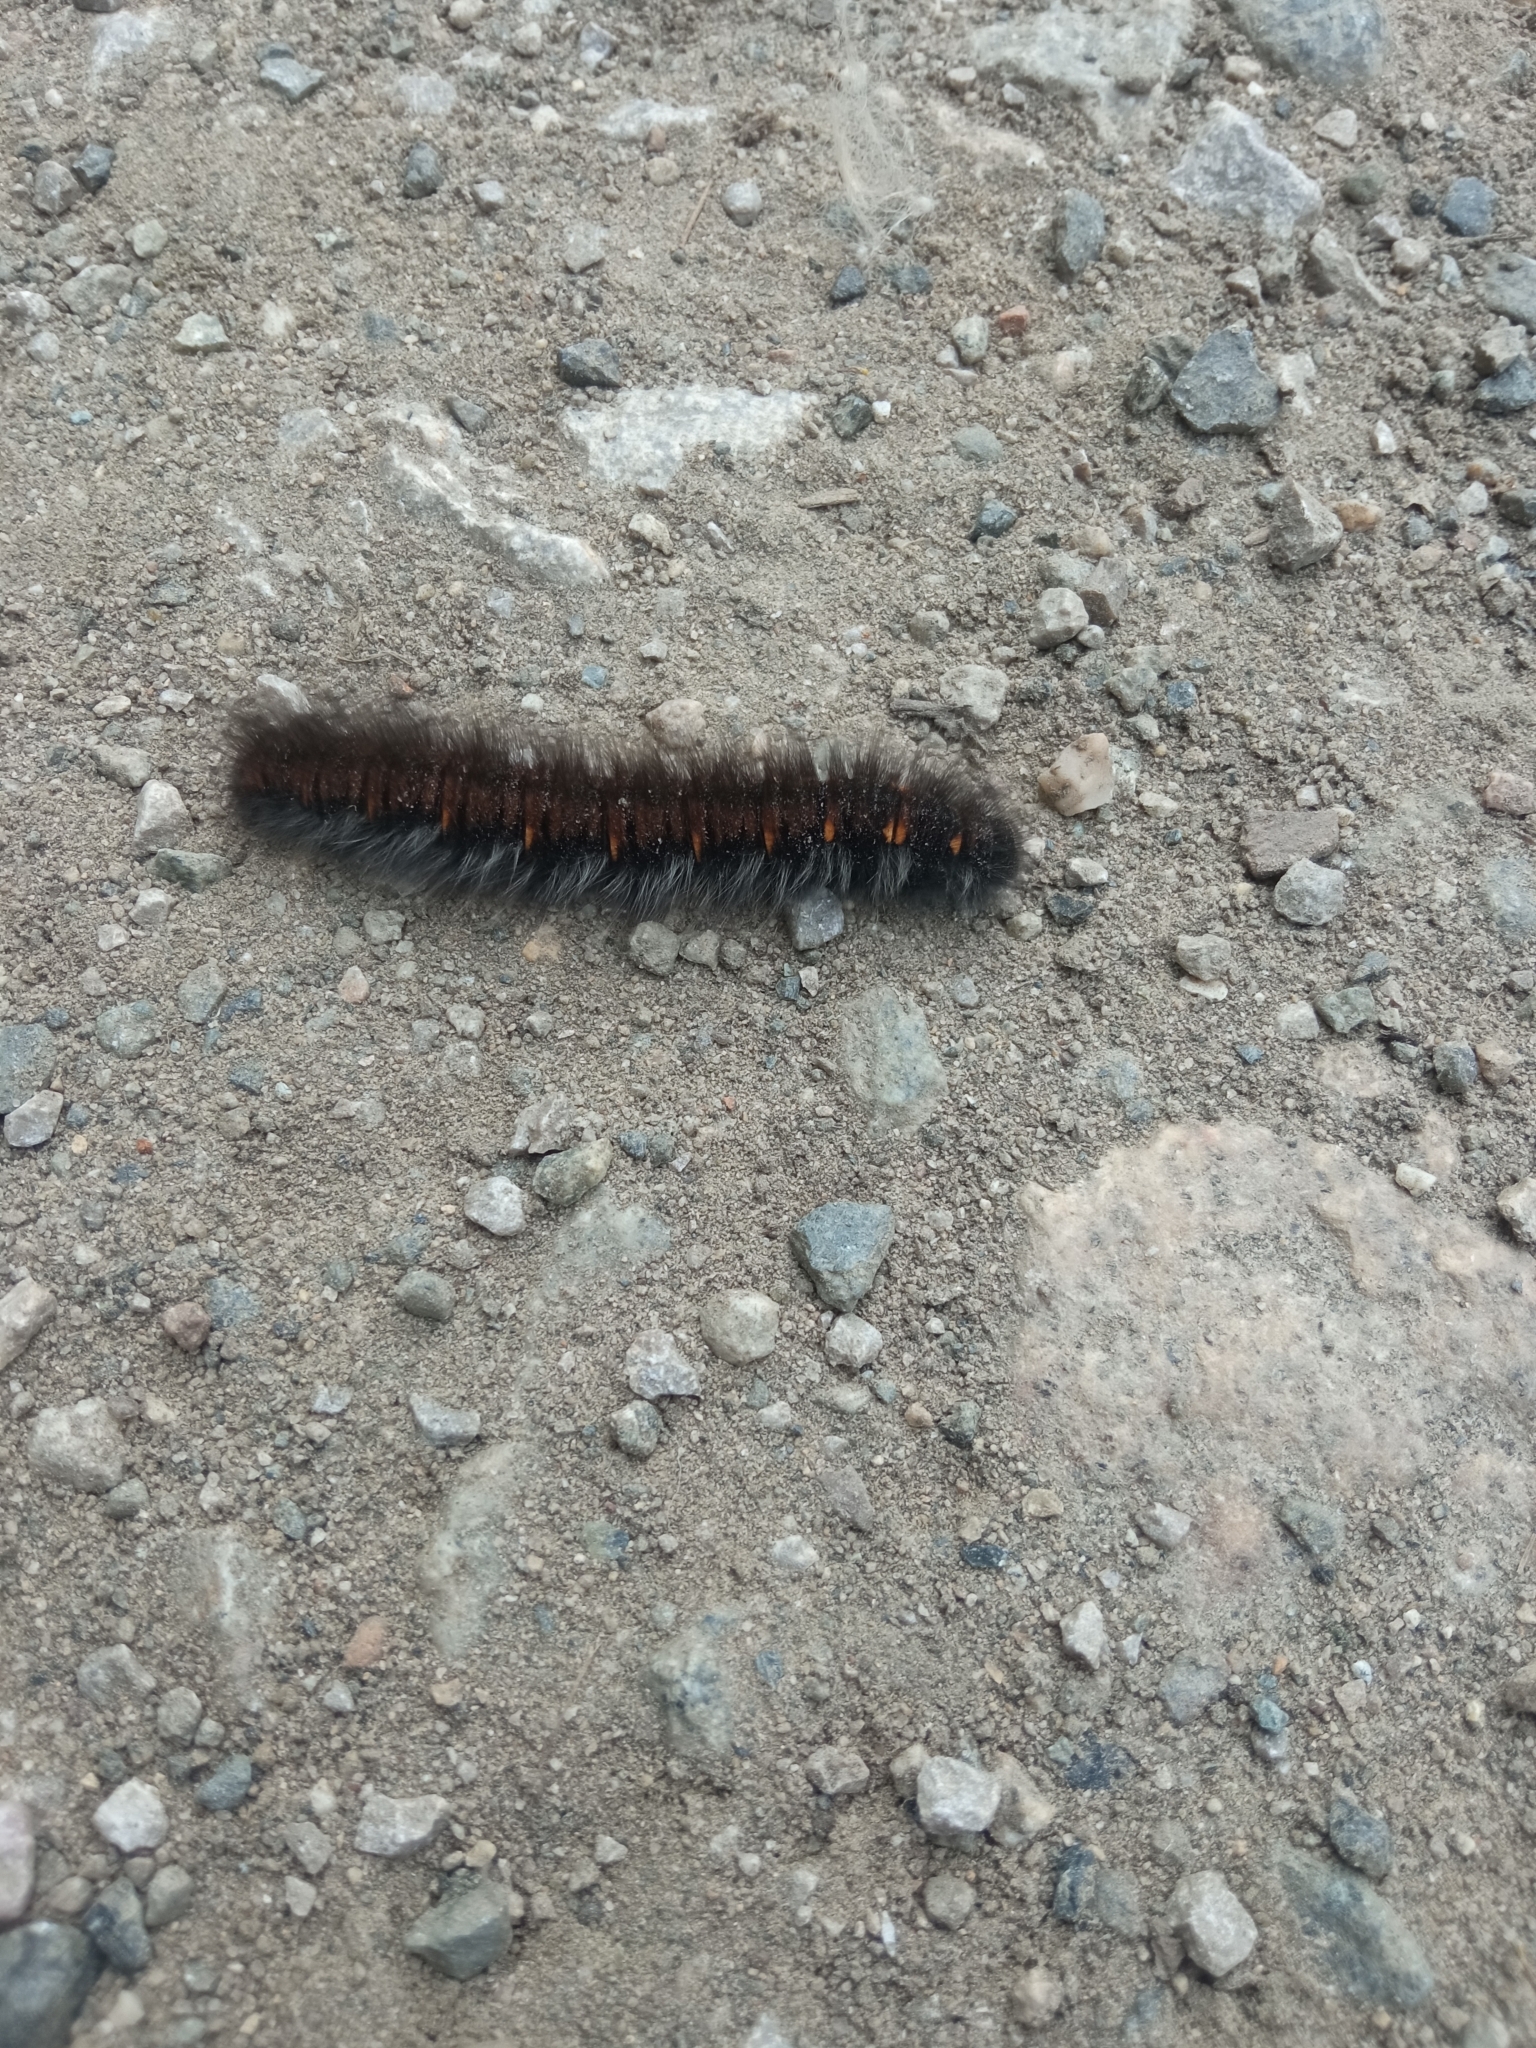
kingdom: Animalia
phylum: Arthropoda
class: Insecta
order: Lepidoptera
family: Lasiocampidae
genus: Macrothylacia
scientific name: Macrothylacia rubi
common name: Fox moth
